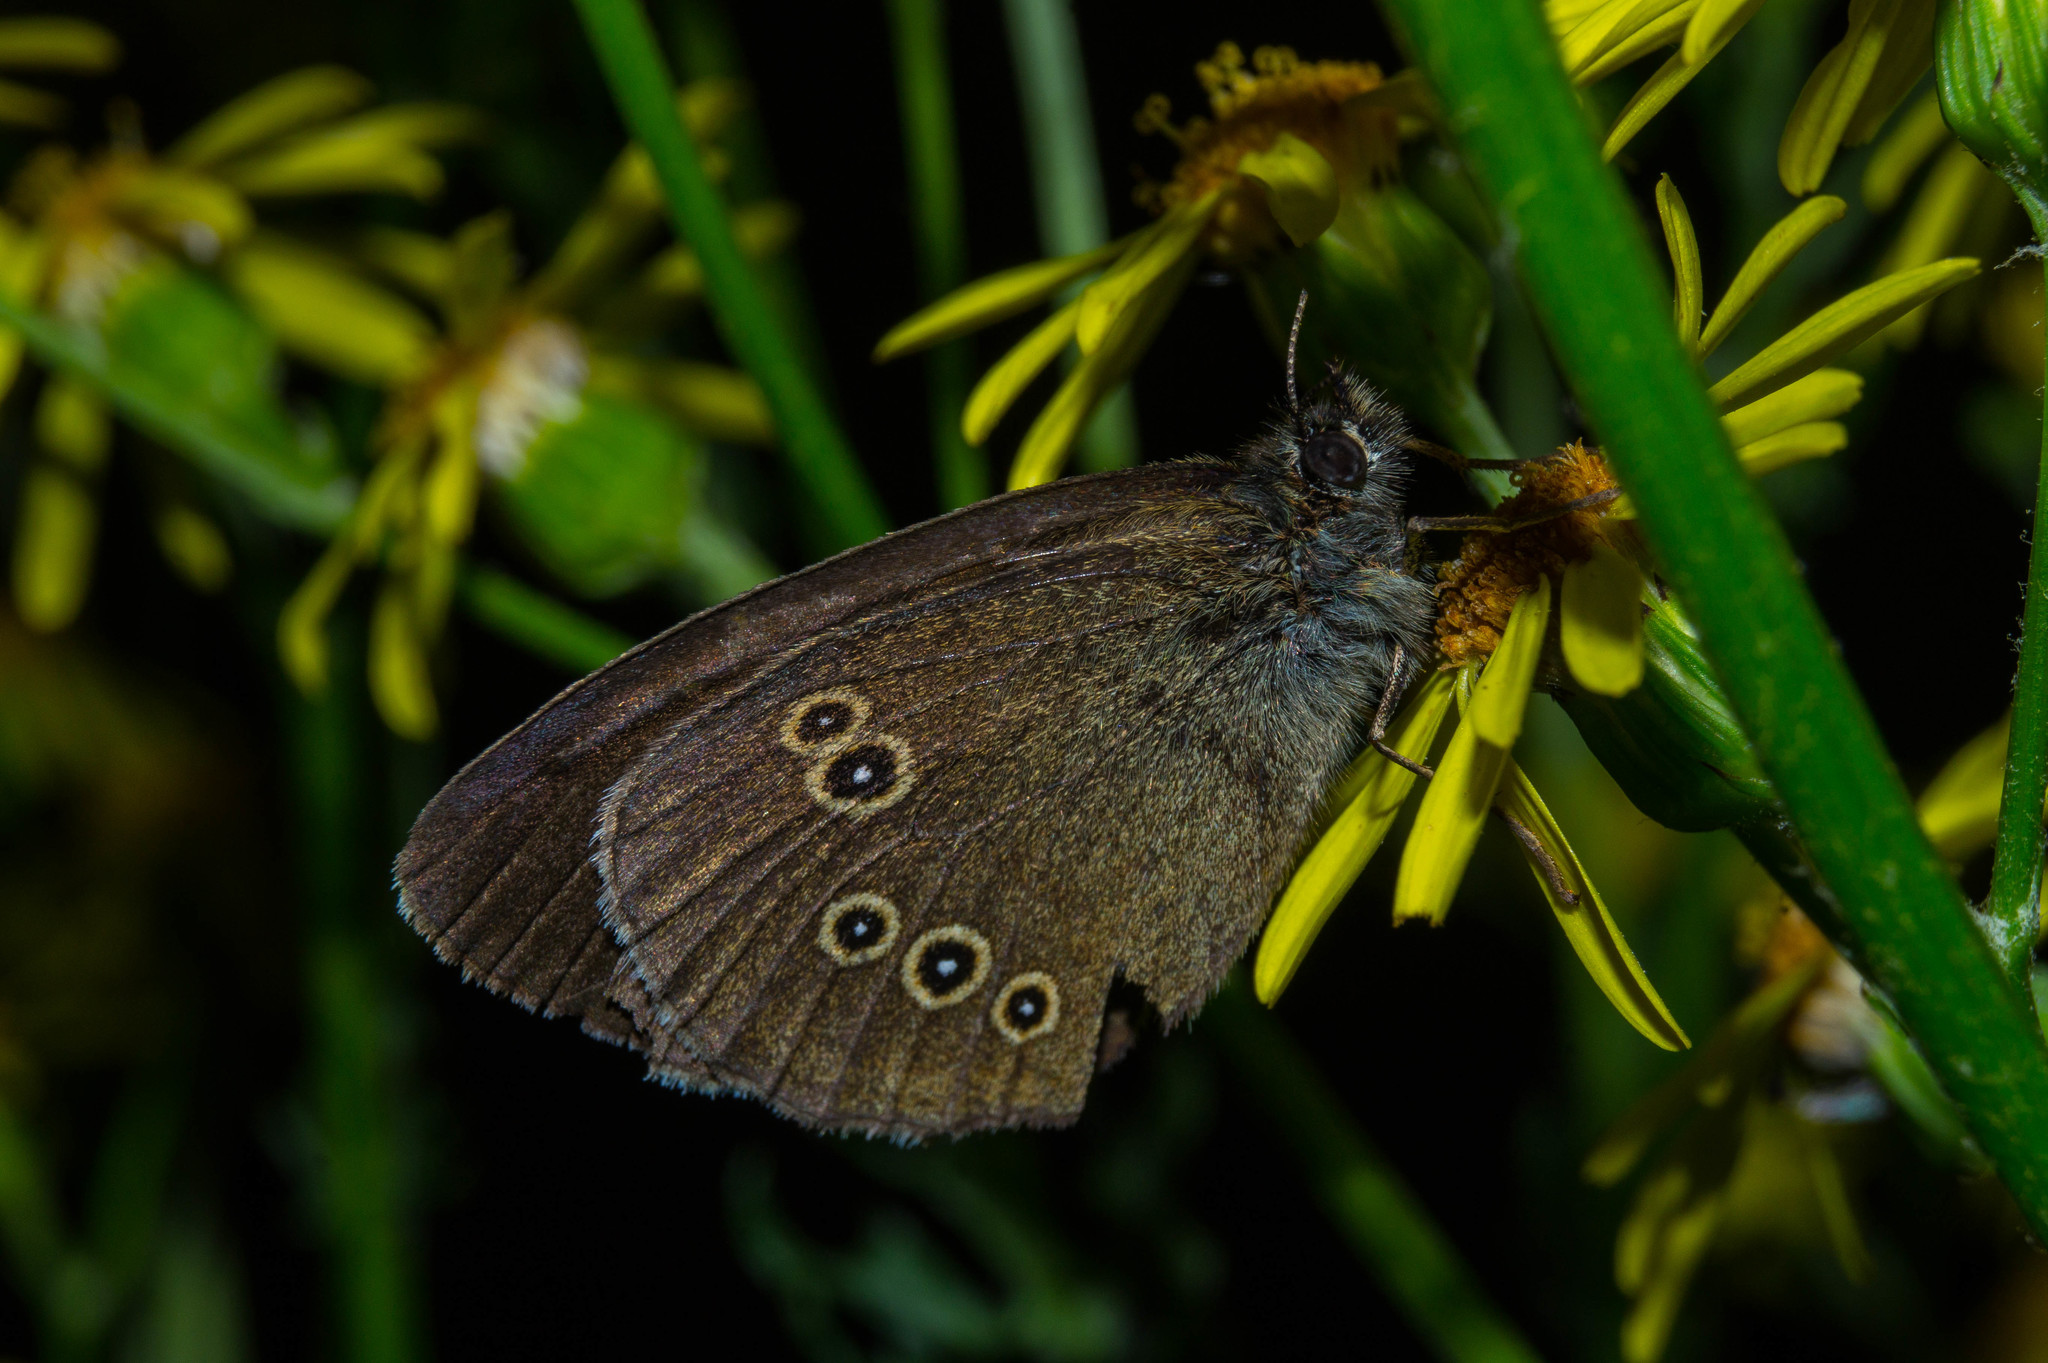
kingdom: Animalia
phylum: Arthropoda
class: Insecta
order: Lepidoptera
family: Nymphalidae
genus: Aphantopus
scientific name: Aphantopus hyperantus
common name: Ringlet
